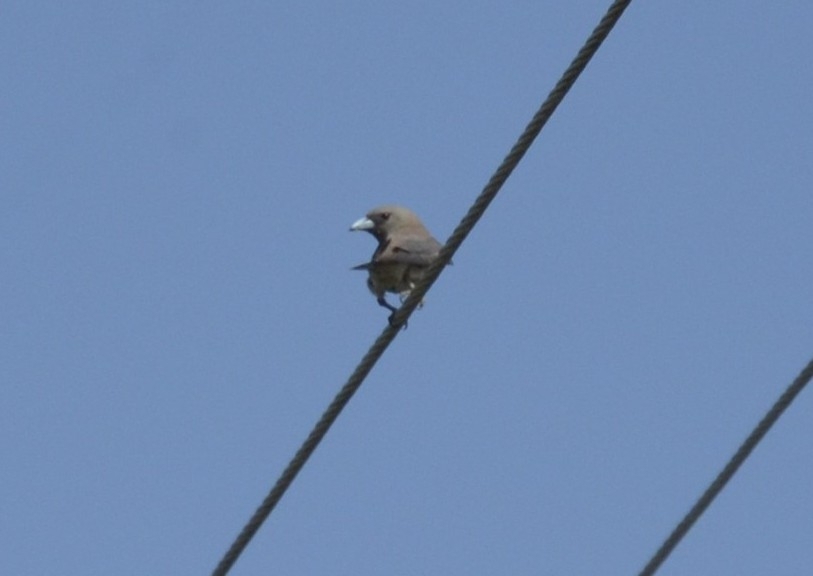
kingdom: Animalia
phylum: Chordata
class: Aves
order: Passeriformes
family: Artamidae
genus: Artamus
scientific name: Artamus fuscus
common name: Ashy woodswallow
